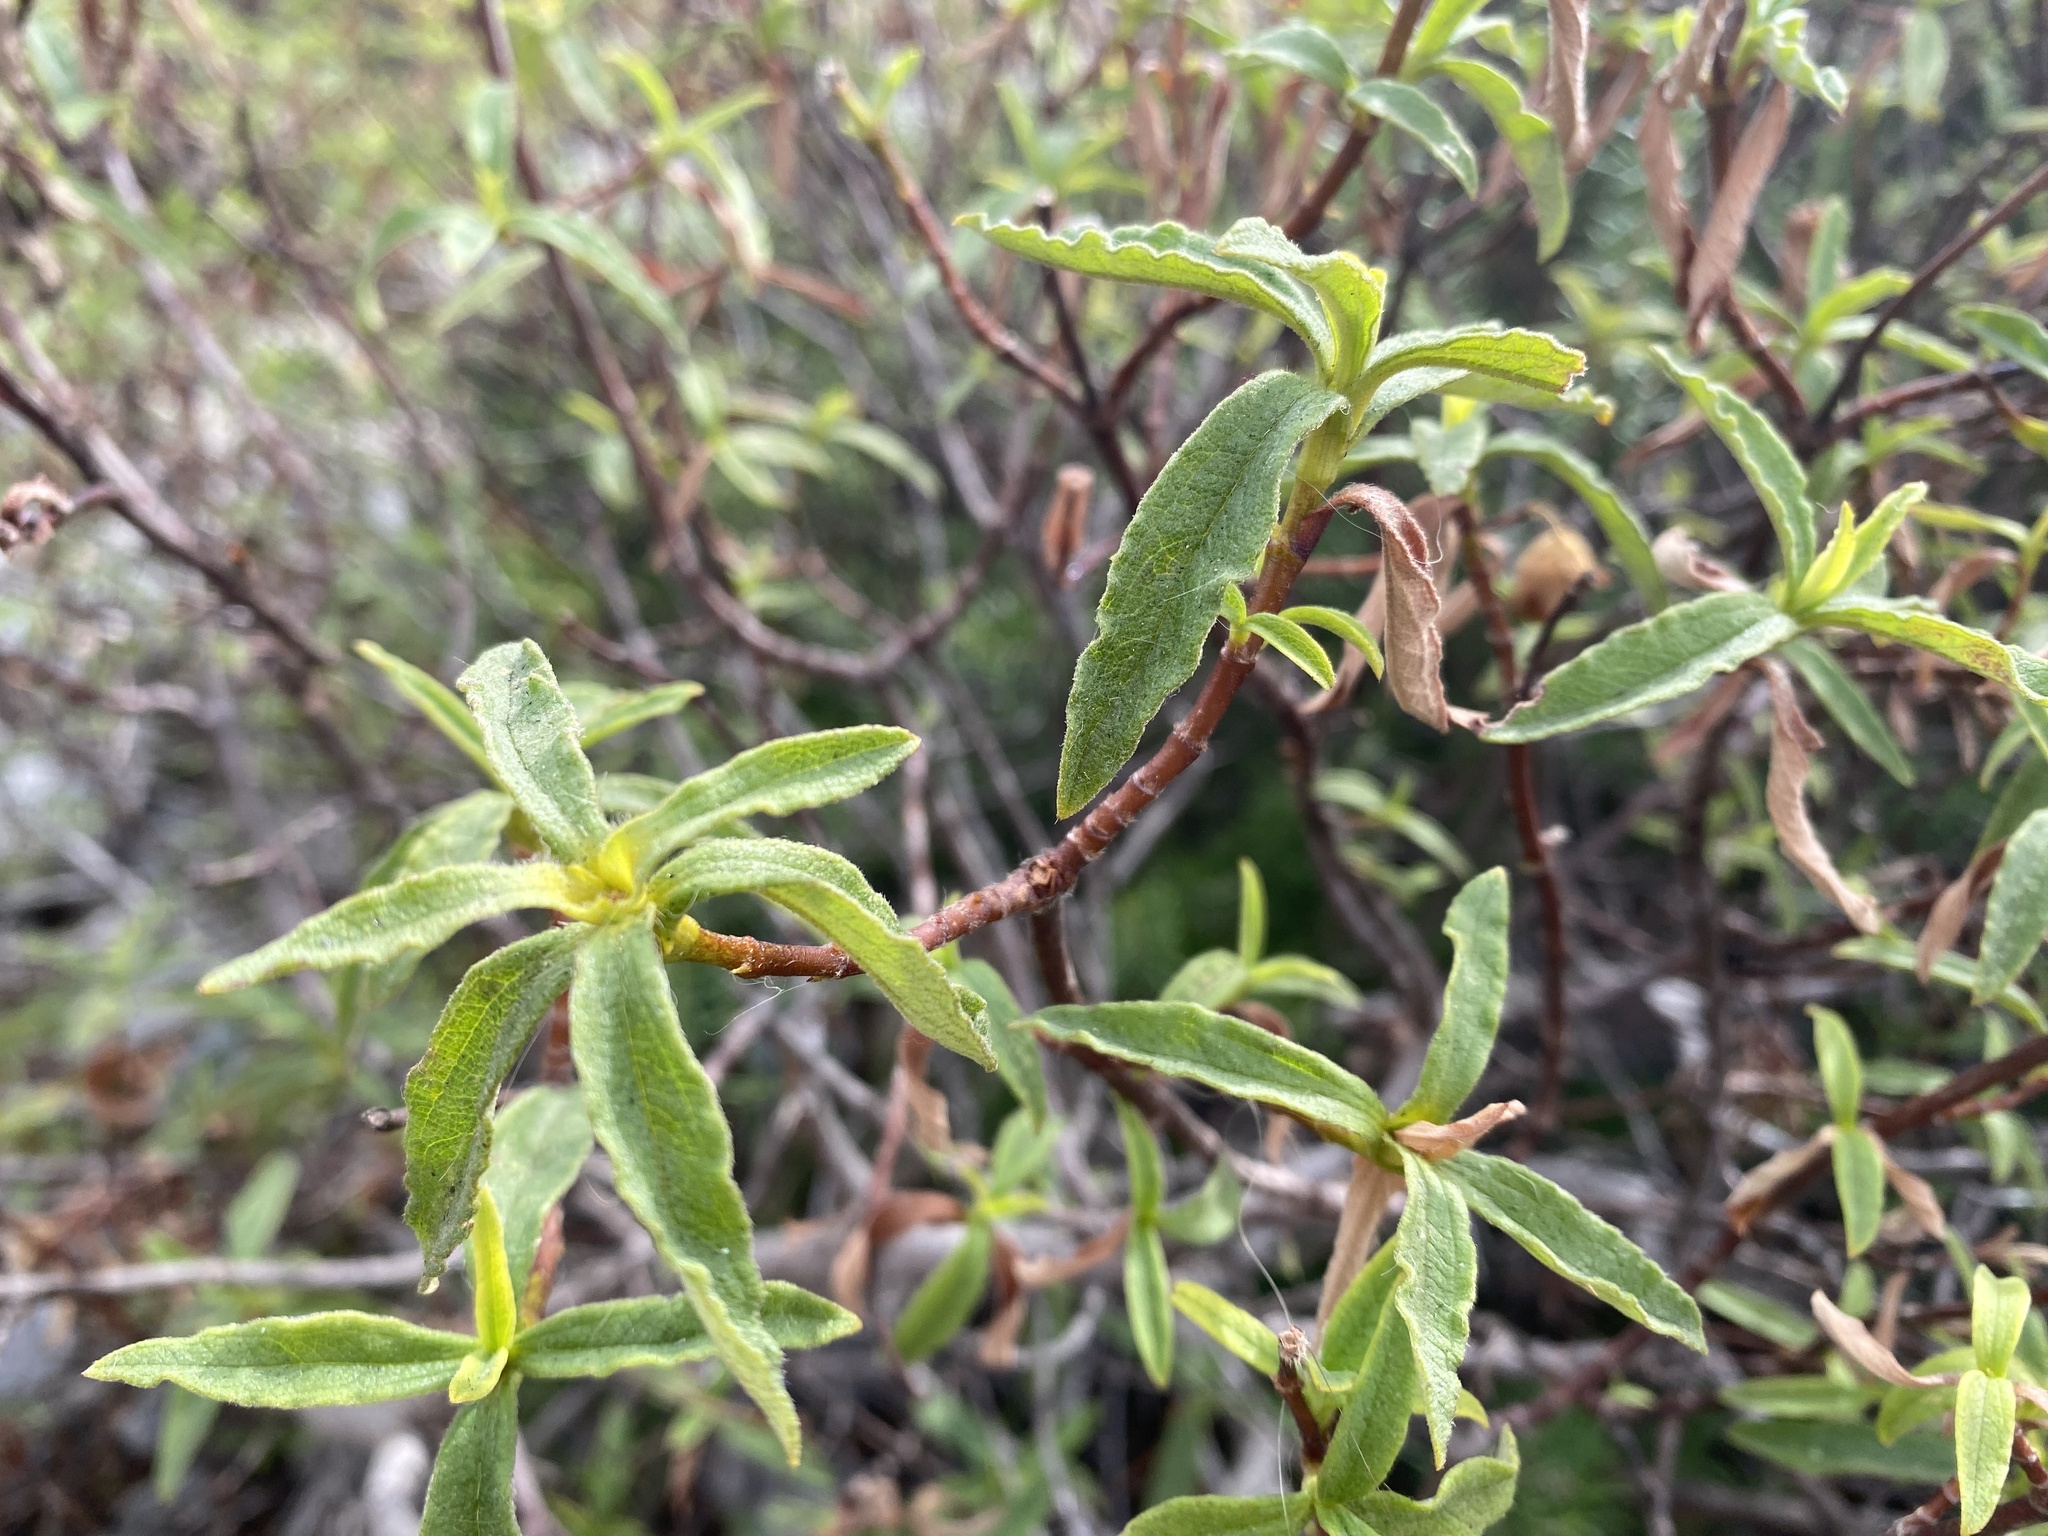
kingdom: Plantae
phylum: Tracheophyta
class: Magnoliopsida
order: Malvales
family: Cistaceae
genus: Cistus
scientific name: Cistus monspeliensis
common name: Montpelier cistus
